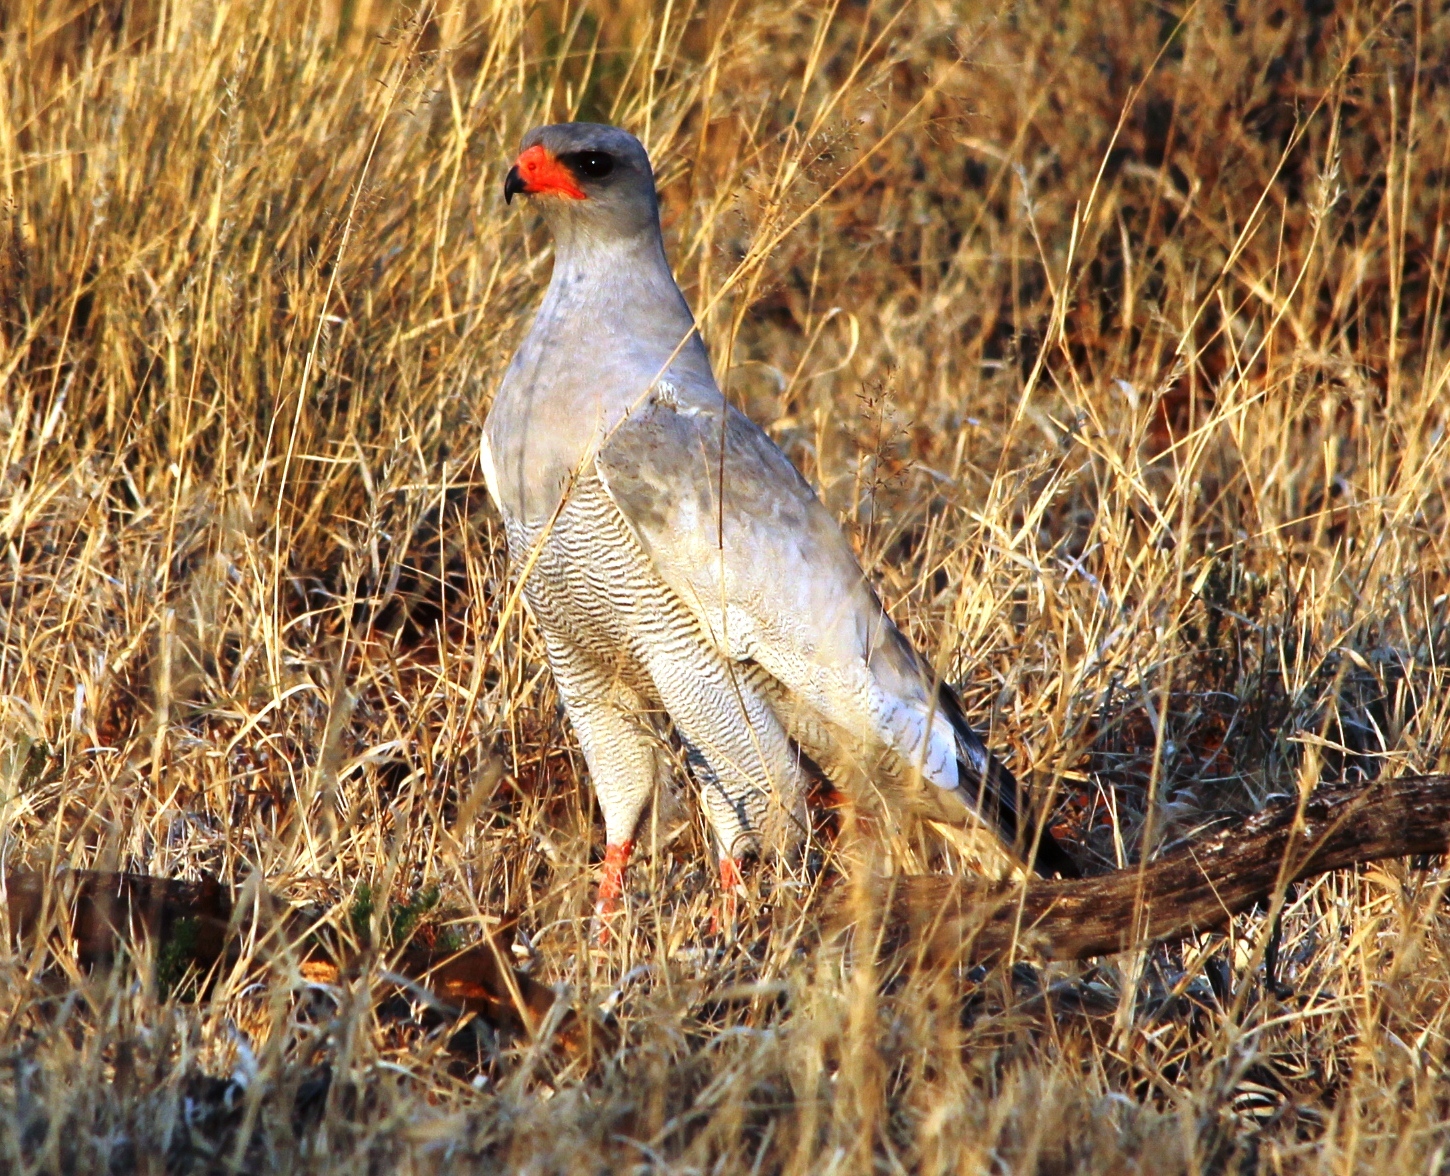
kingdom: Animalia
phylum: Chordata
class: Aves
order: Accipitriformes
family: Accipitridae
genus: Melierax
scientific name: Melierax canorus
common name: Pale chanting-goshawk
